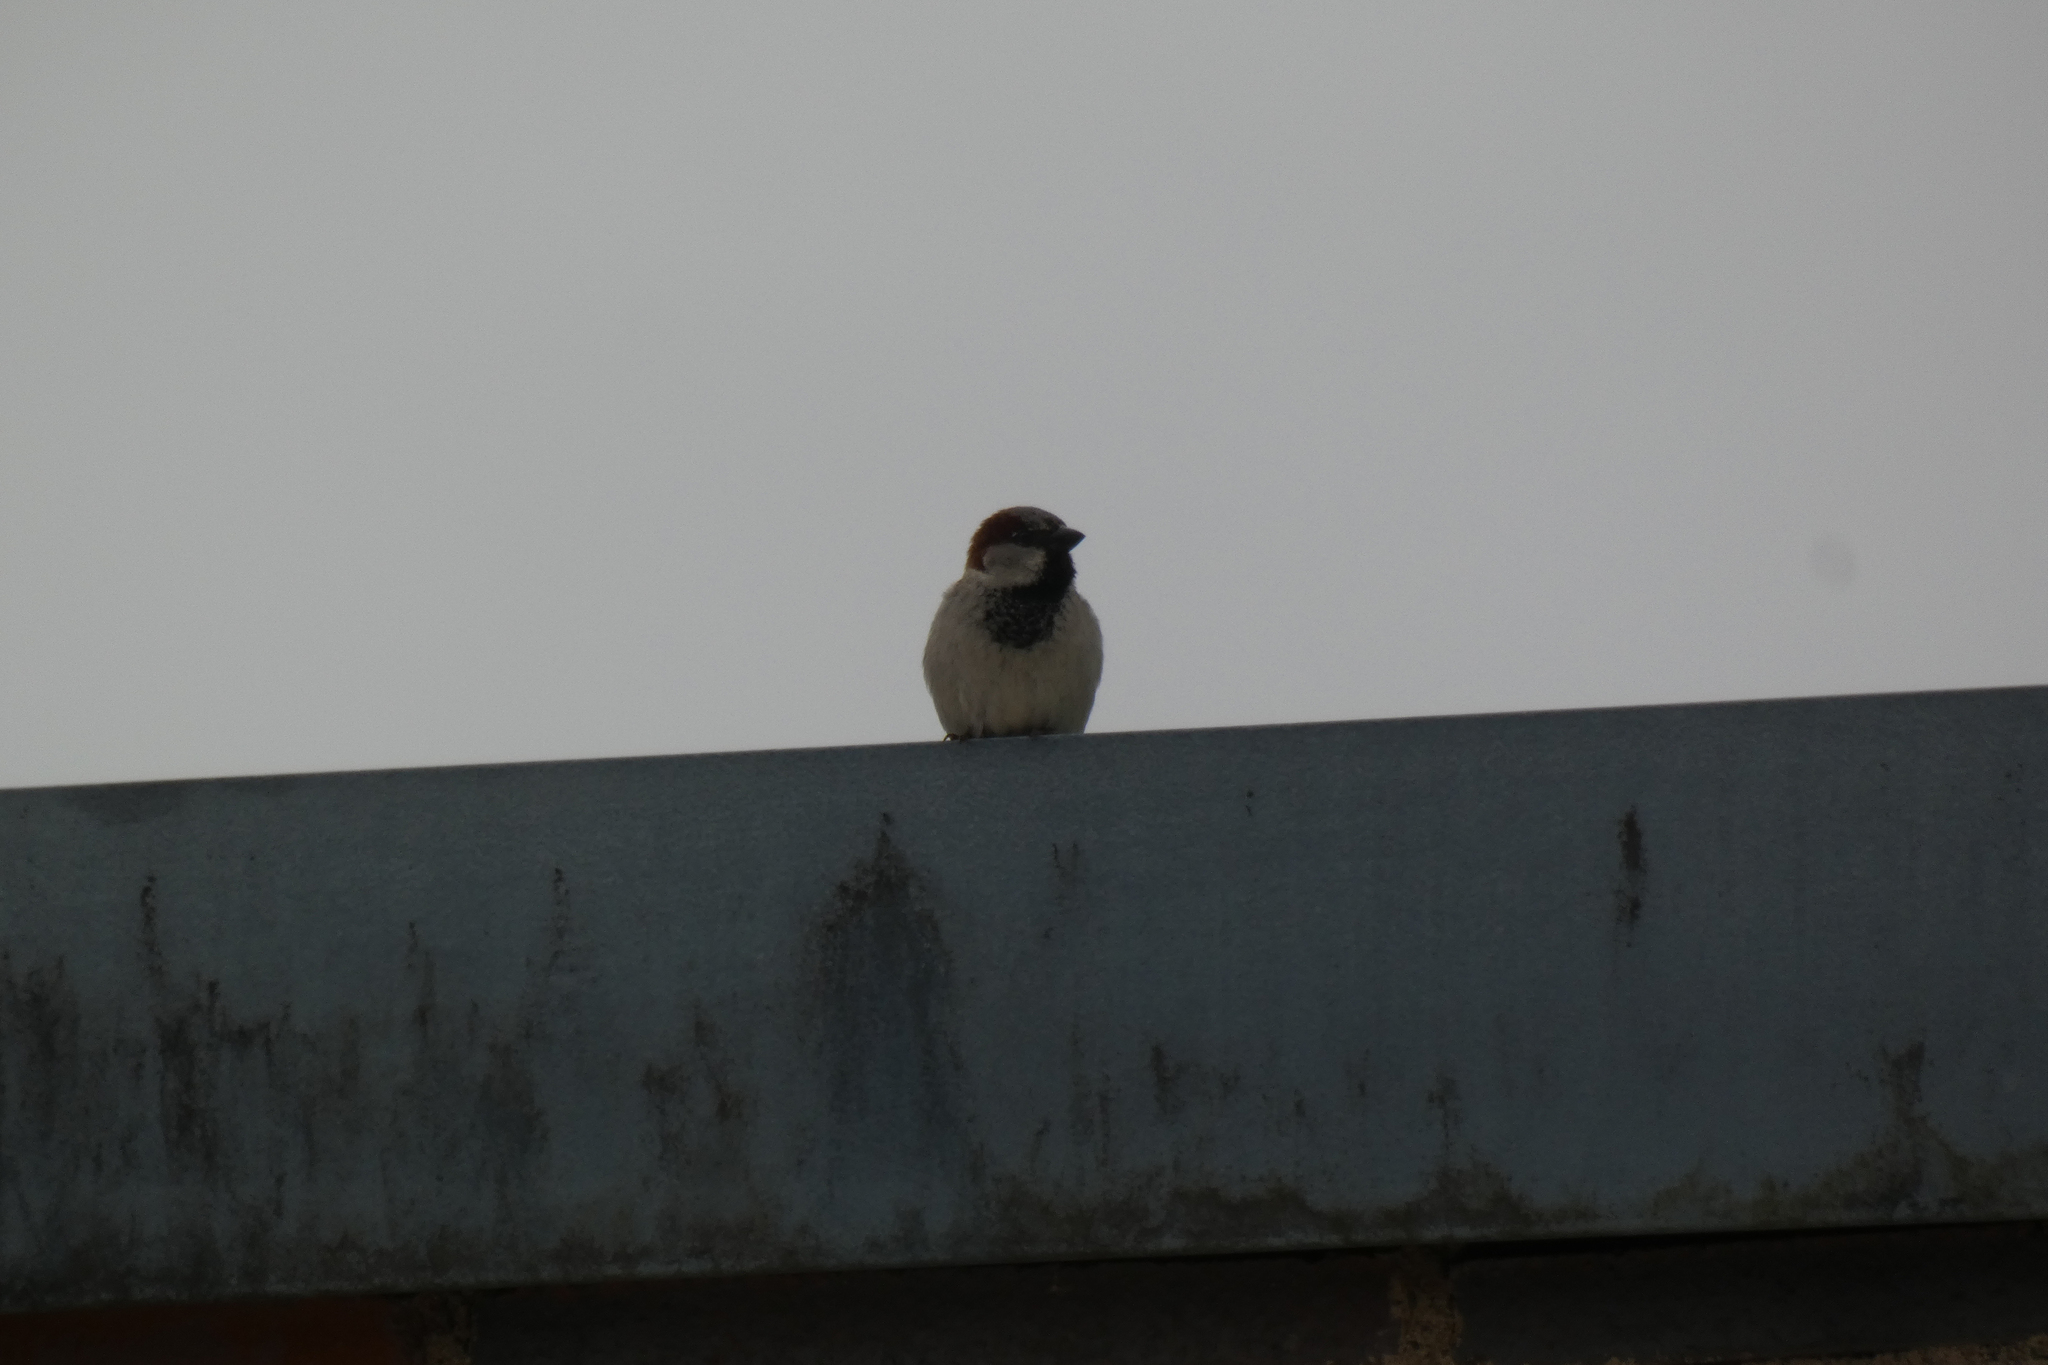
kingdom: Animalia
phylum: Chordata
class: Aves
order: Passeriformes
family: Passeridae
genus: Passer
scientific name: Passer domesticus
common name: House sparrow
